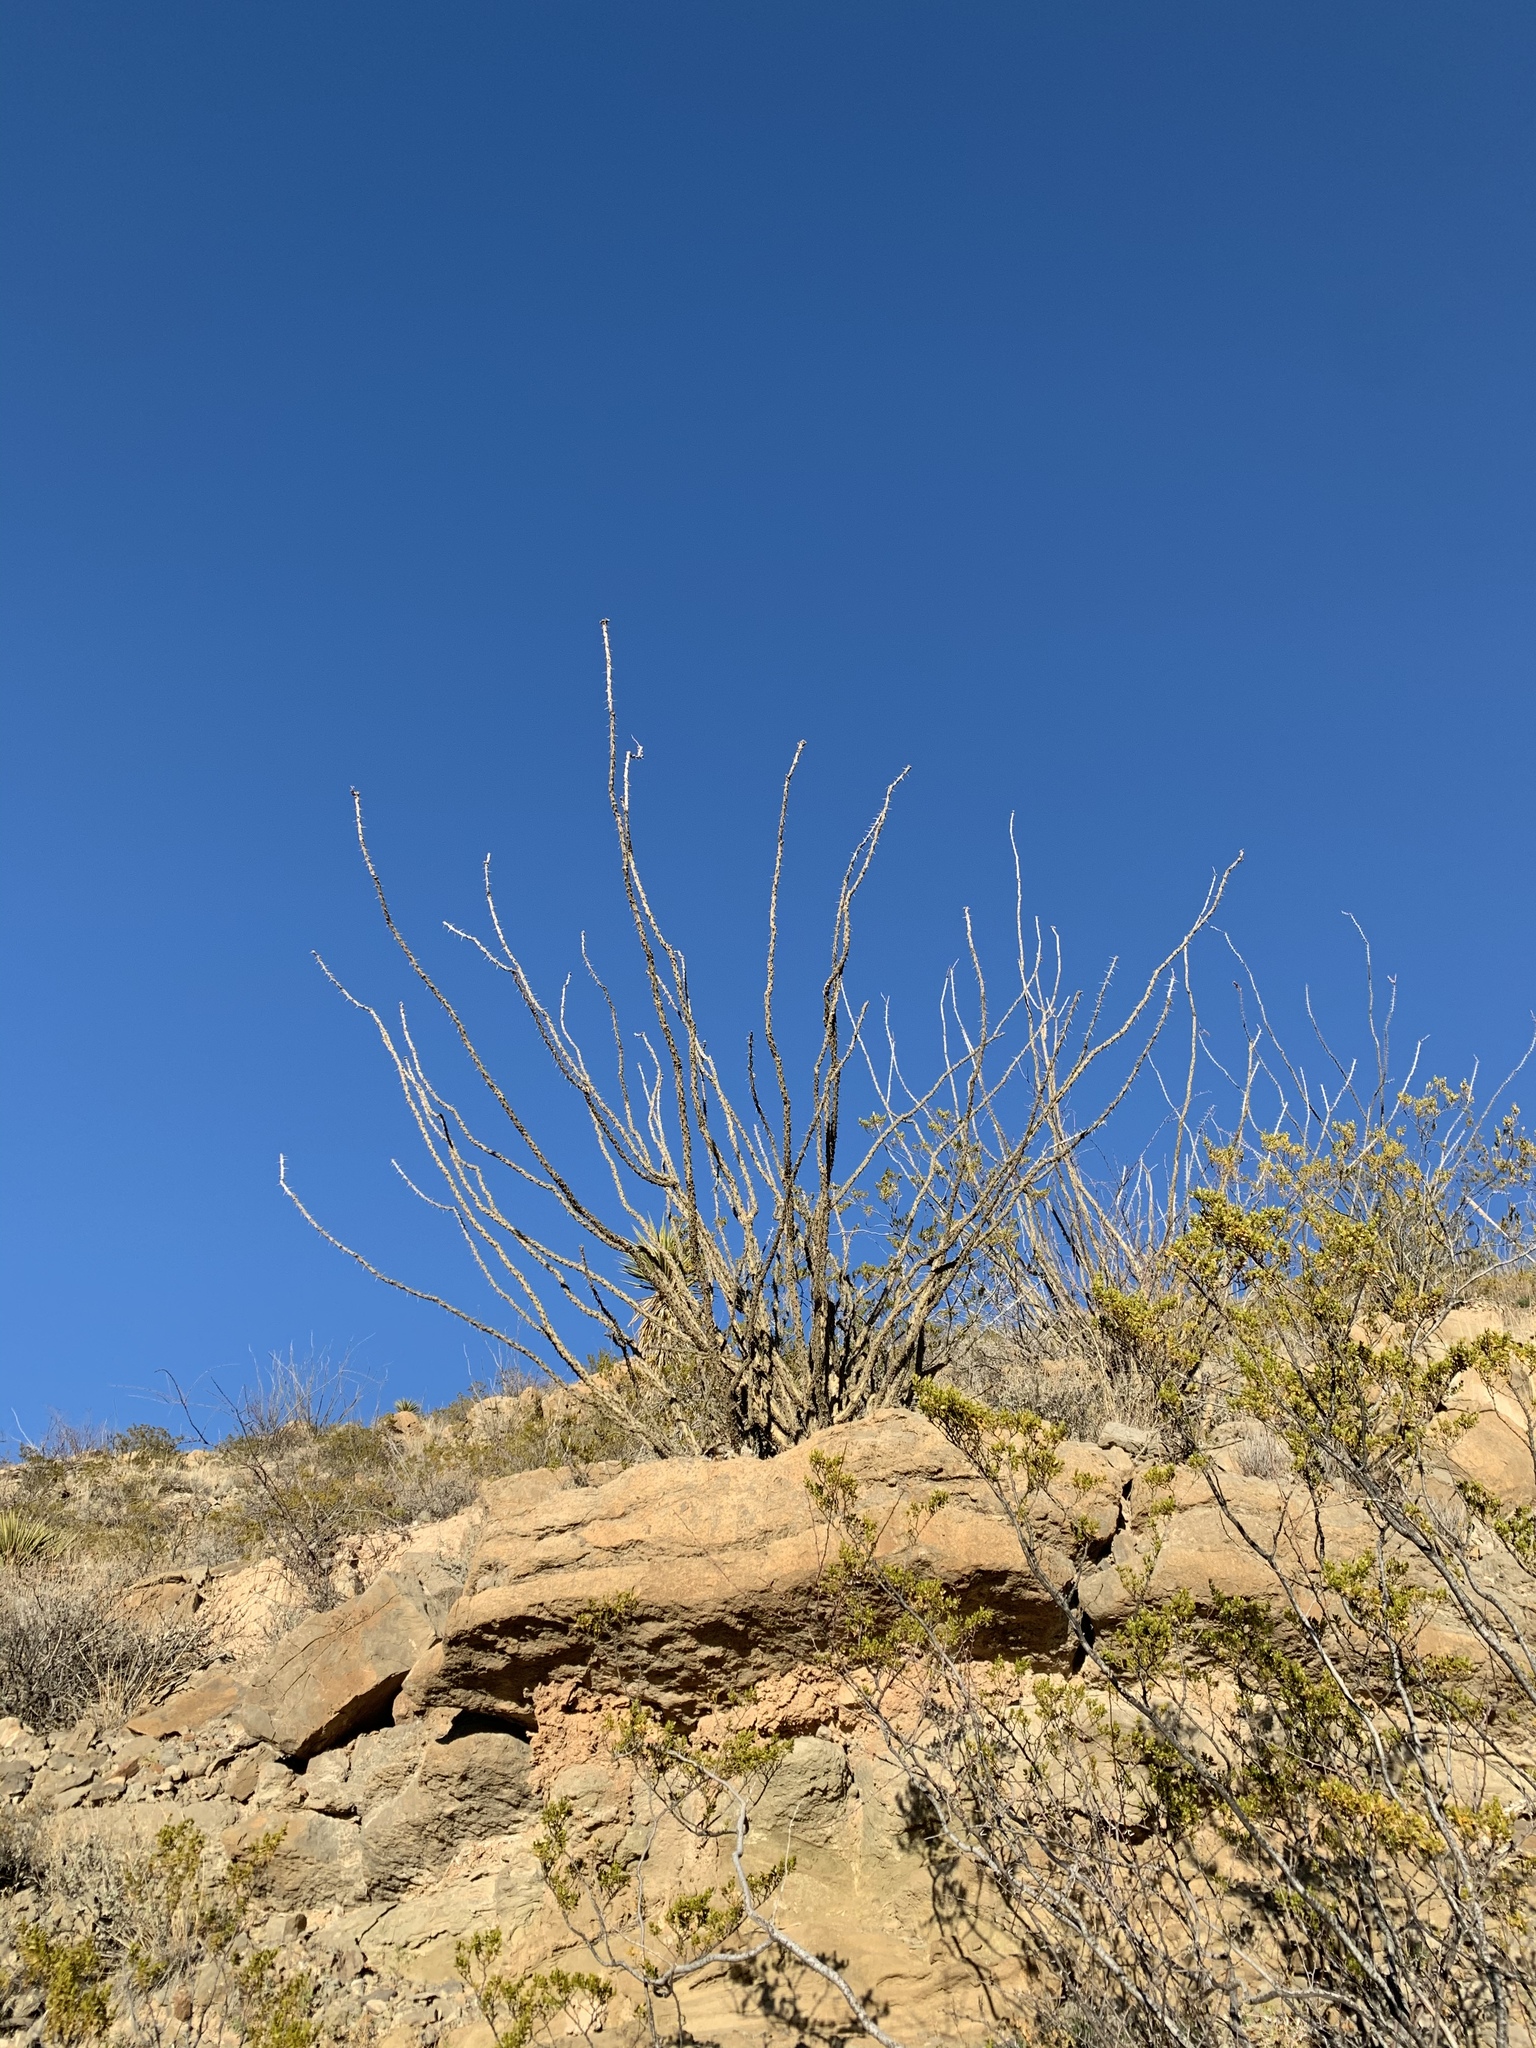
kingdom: Plantae
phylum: Tracheophyta
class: Magnoliopsida
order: Ericales
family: Fouquieriaceae
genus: Fouquieria
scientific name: Fouquieria splendens
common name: Vine-cactus
